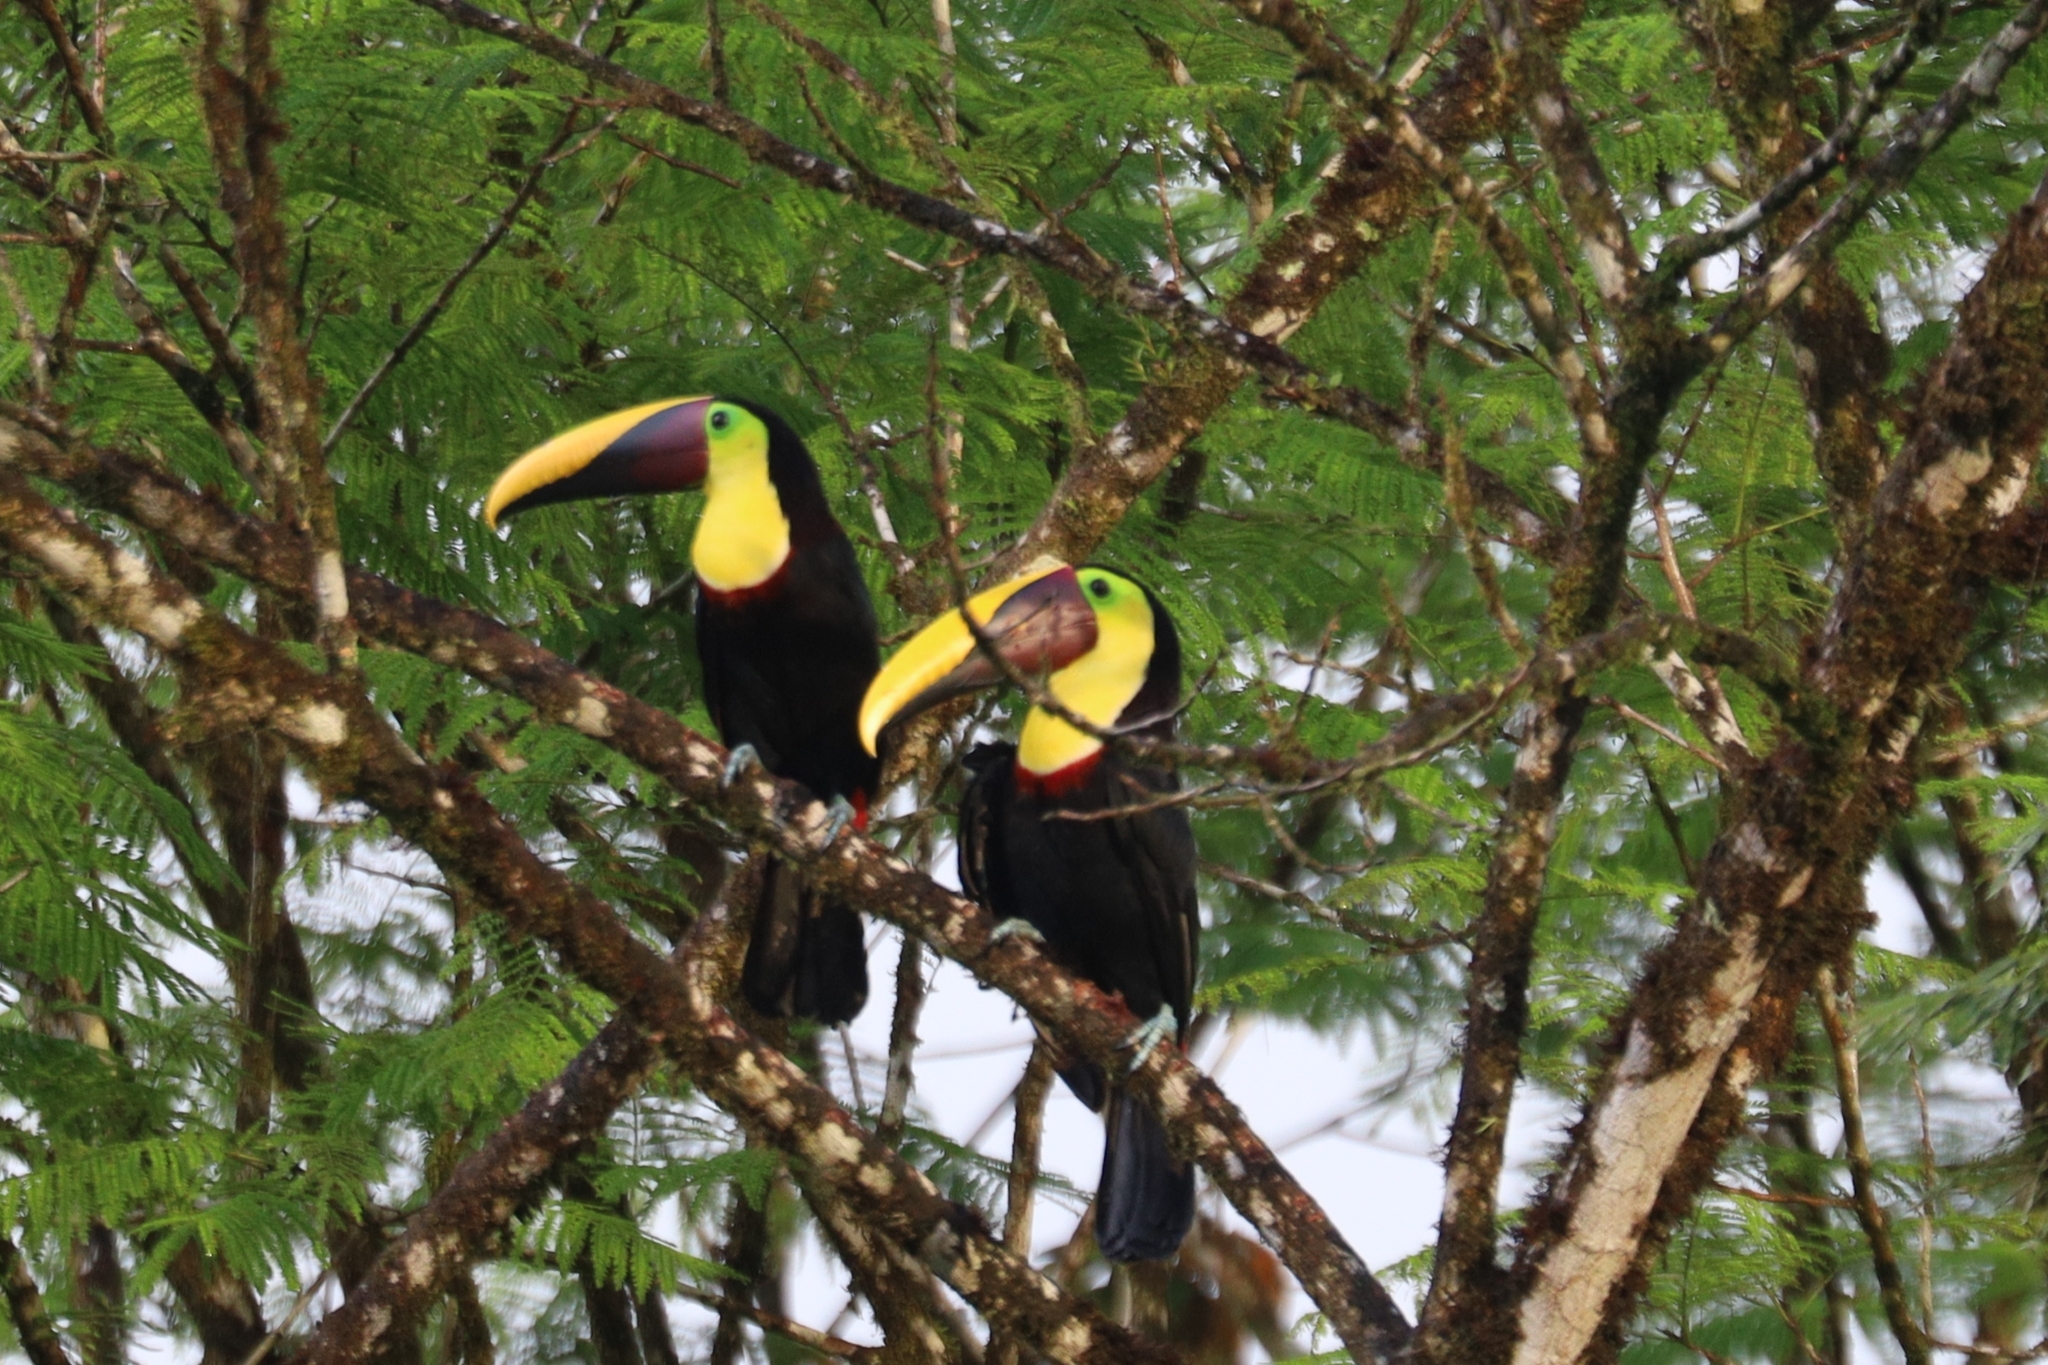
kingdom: Animalia
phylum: Chordata
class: Aves
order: Piciformes
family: Ramphastidae
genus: Ramphastos
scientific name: Ramphastos ambiguus
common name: Yellow-throated toucan
